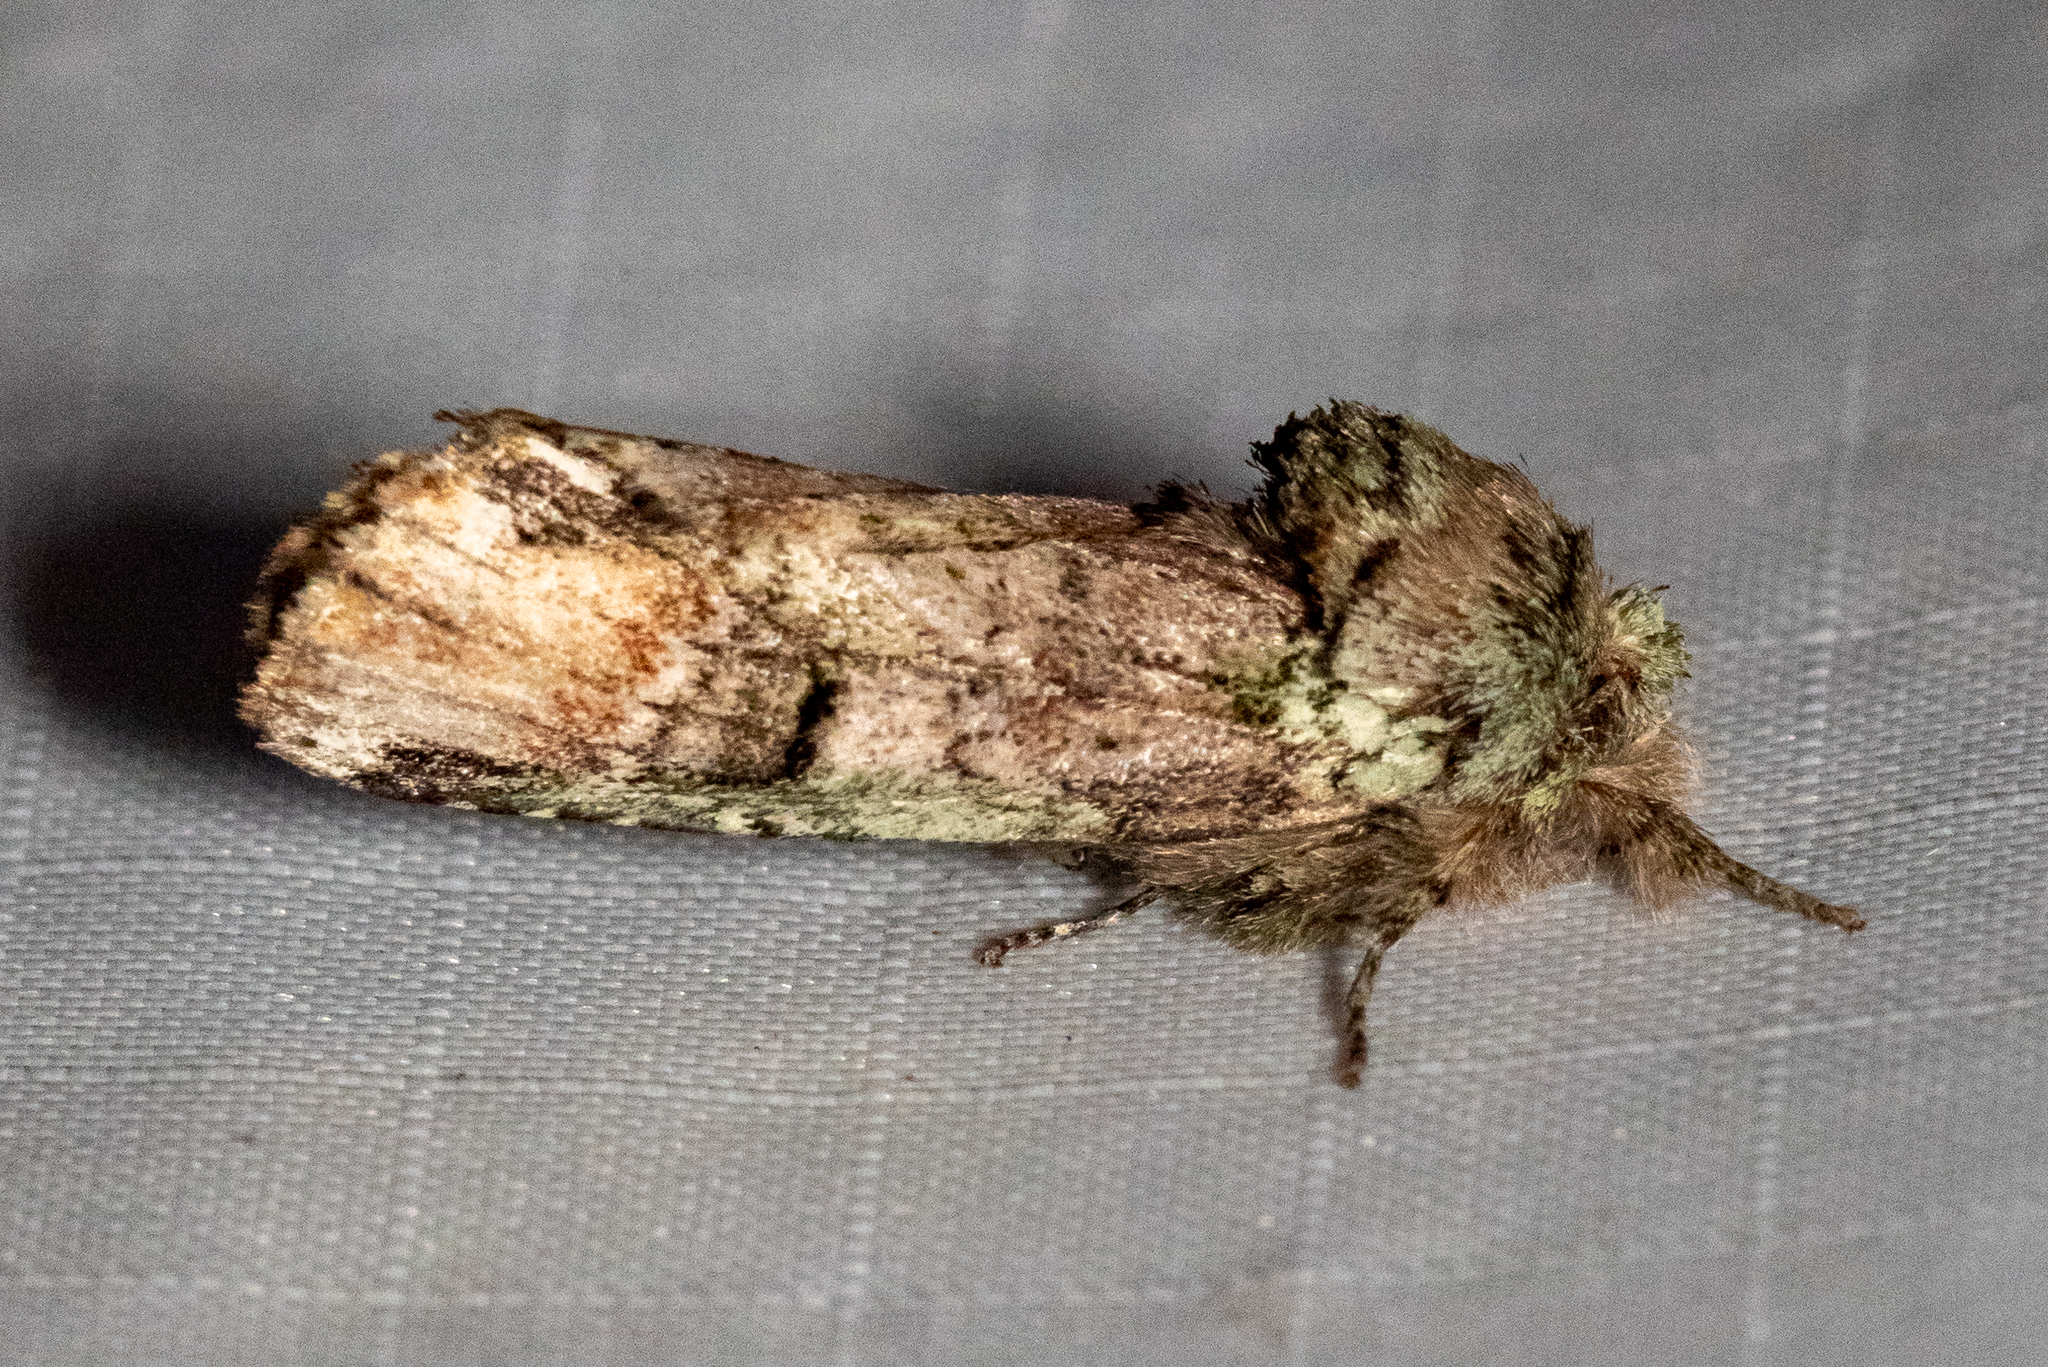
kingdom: Animalia
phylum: Arthropoda
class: Insecta
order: Lepidoptera
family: Notodontidae
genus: Schizura
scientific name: Schizura
